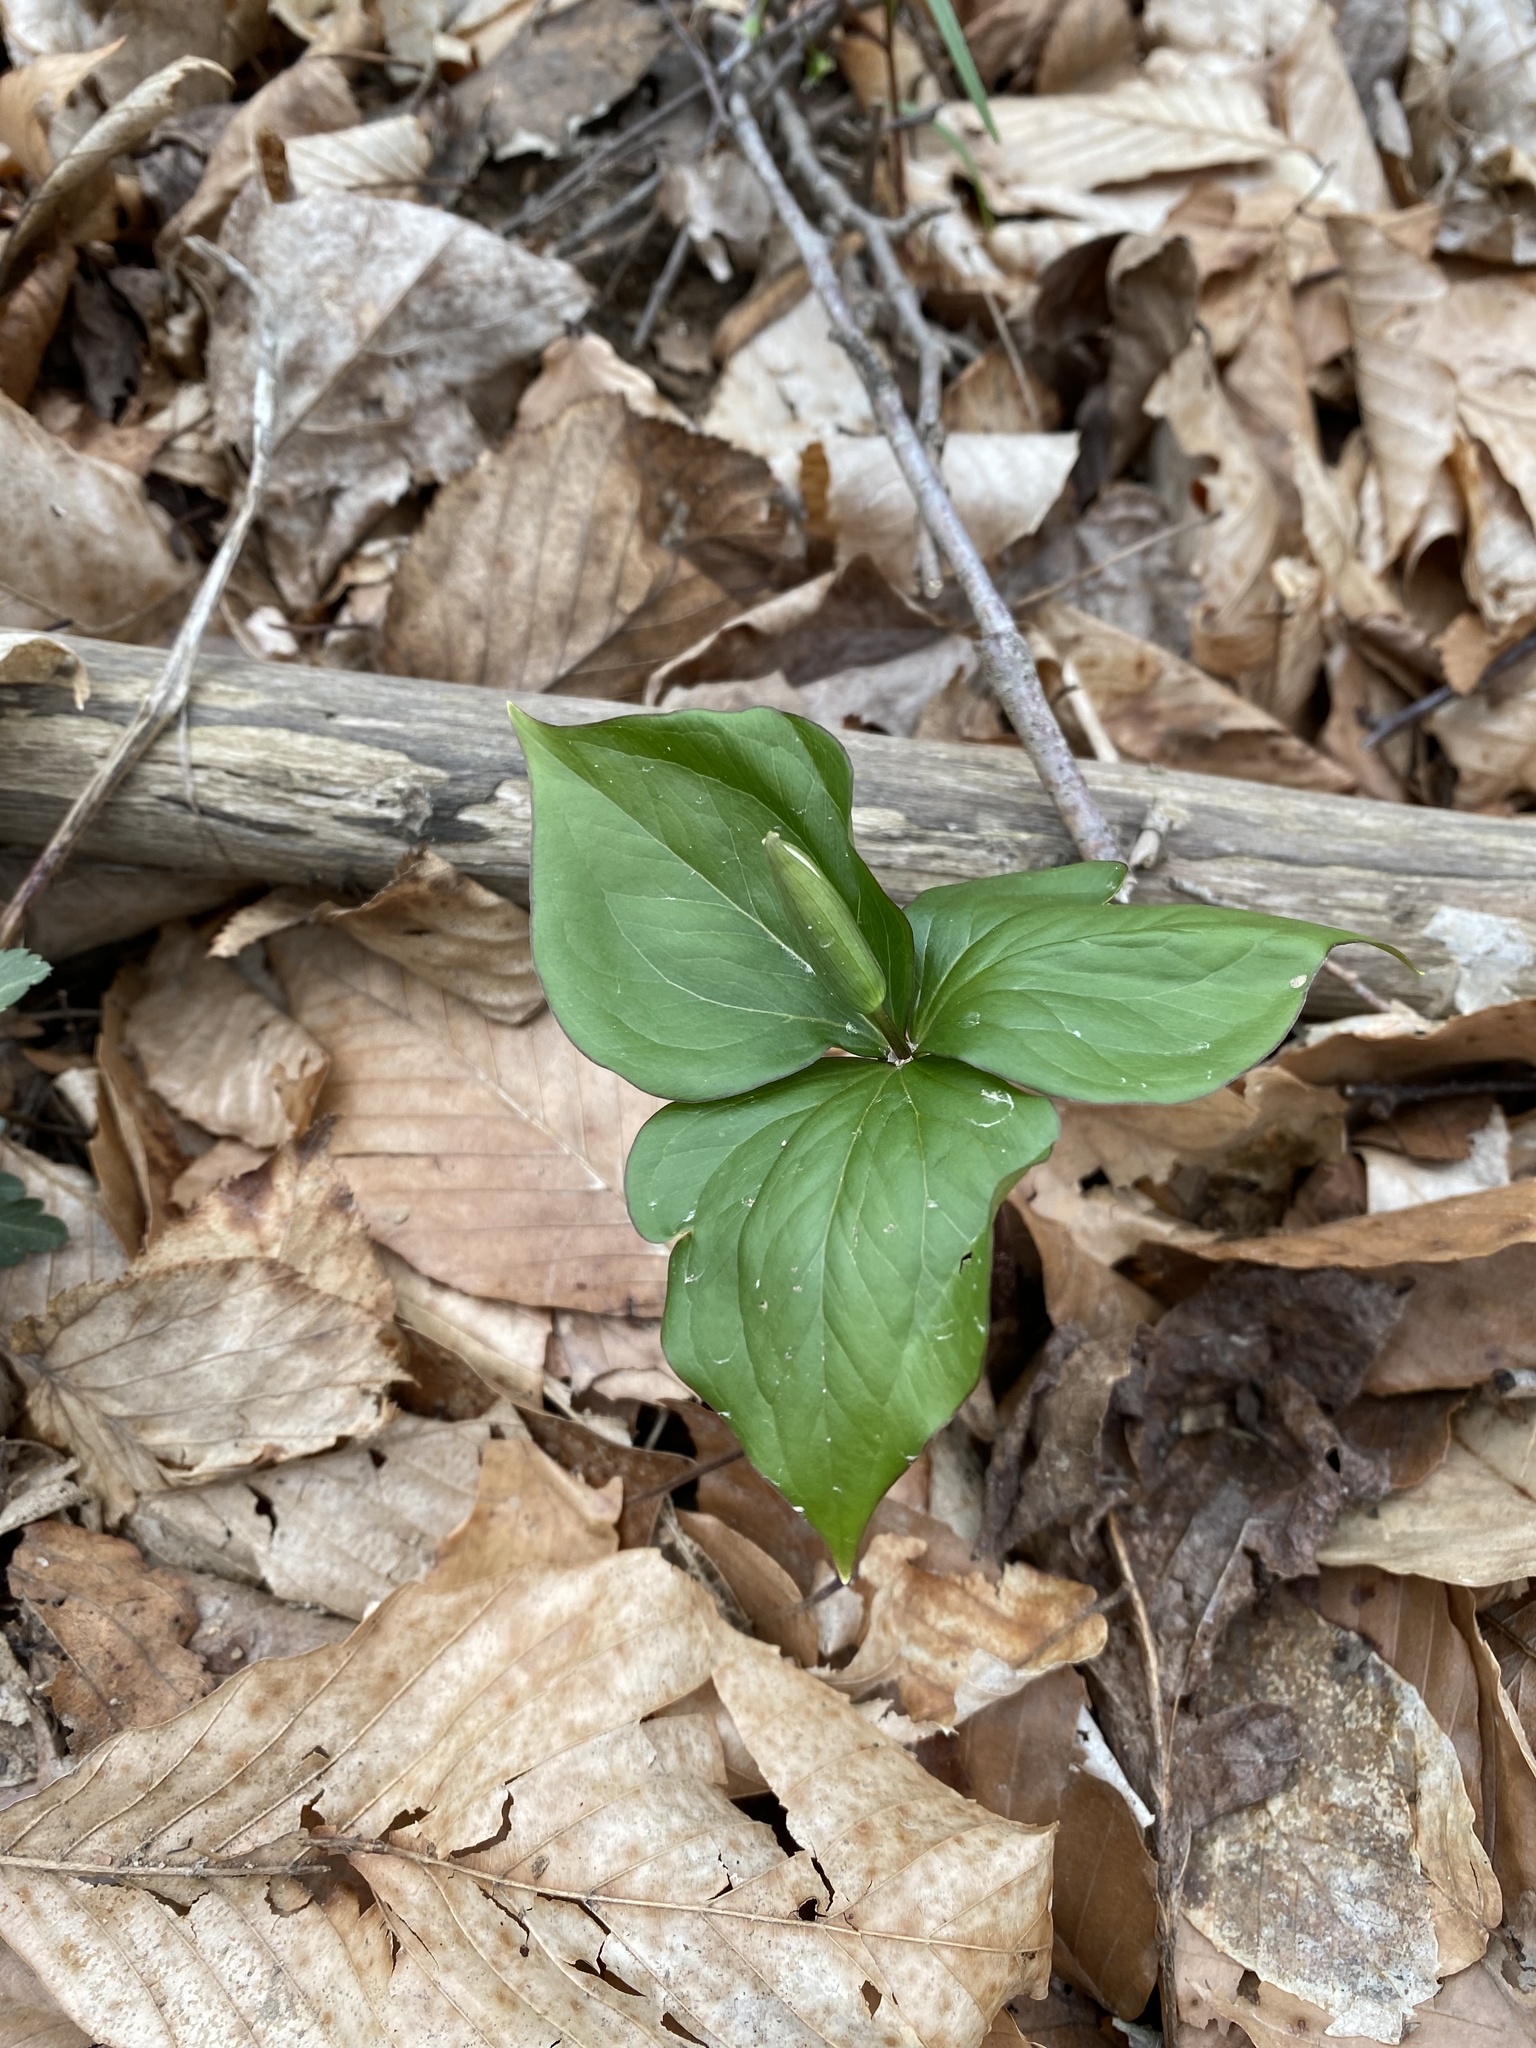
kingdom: Plantae
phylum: Tracheophyta
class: Liliopsida
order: Liliales
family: Melanthiaceae
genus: Trillium
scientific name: Trillium grandiflorum
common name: Great white trillium
